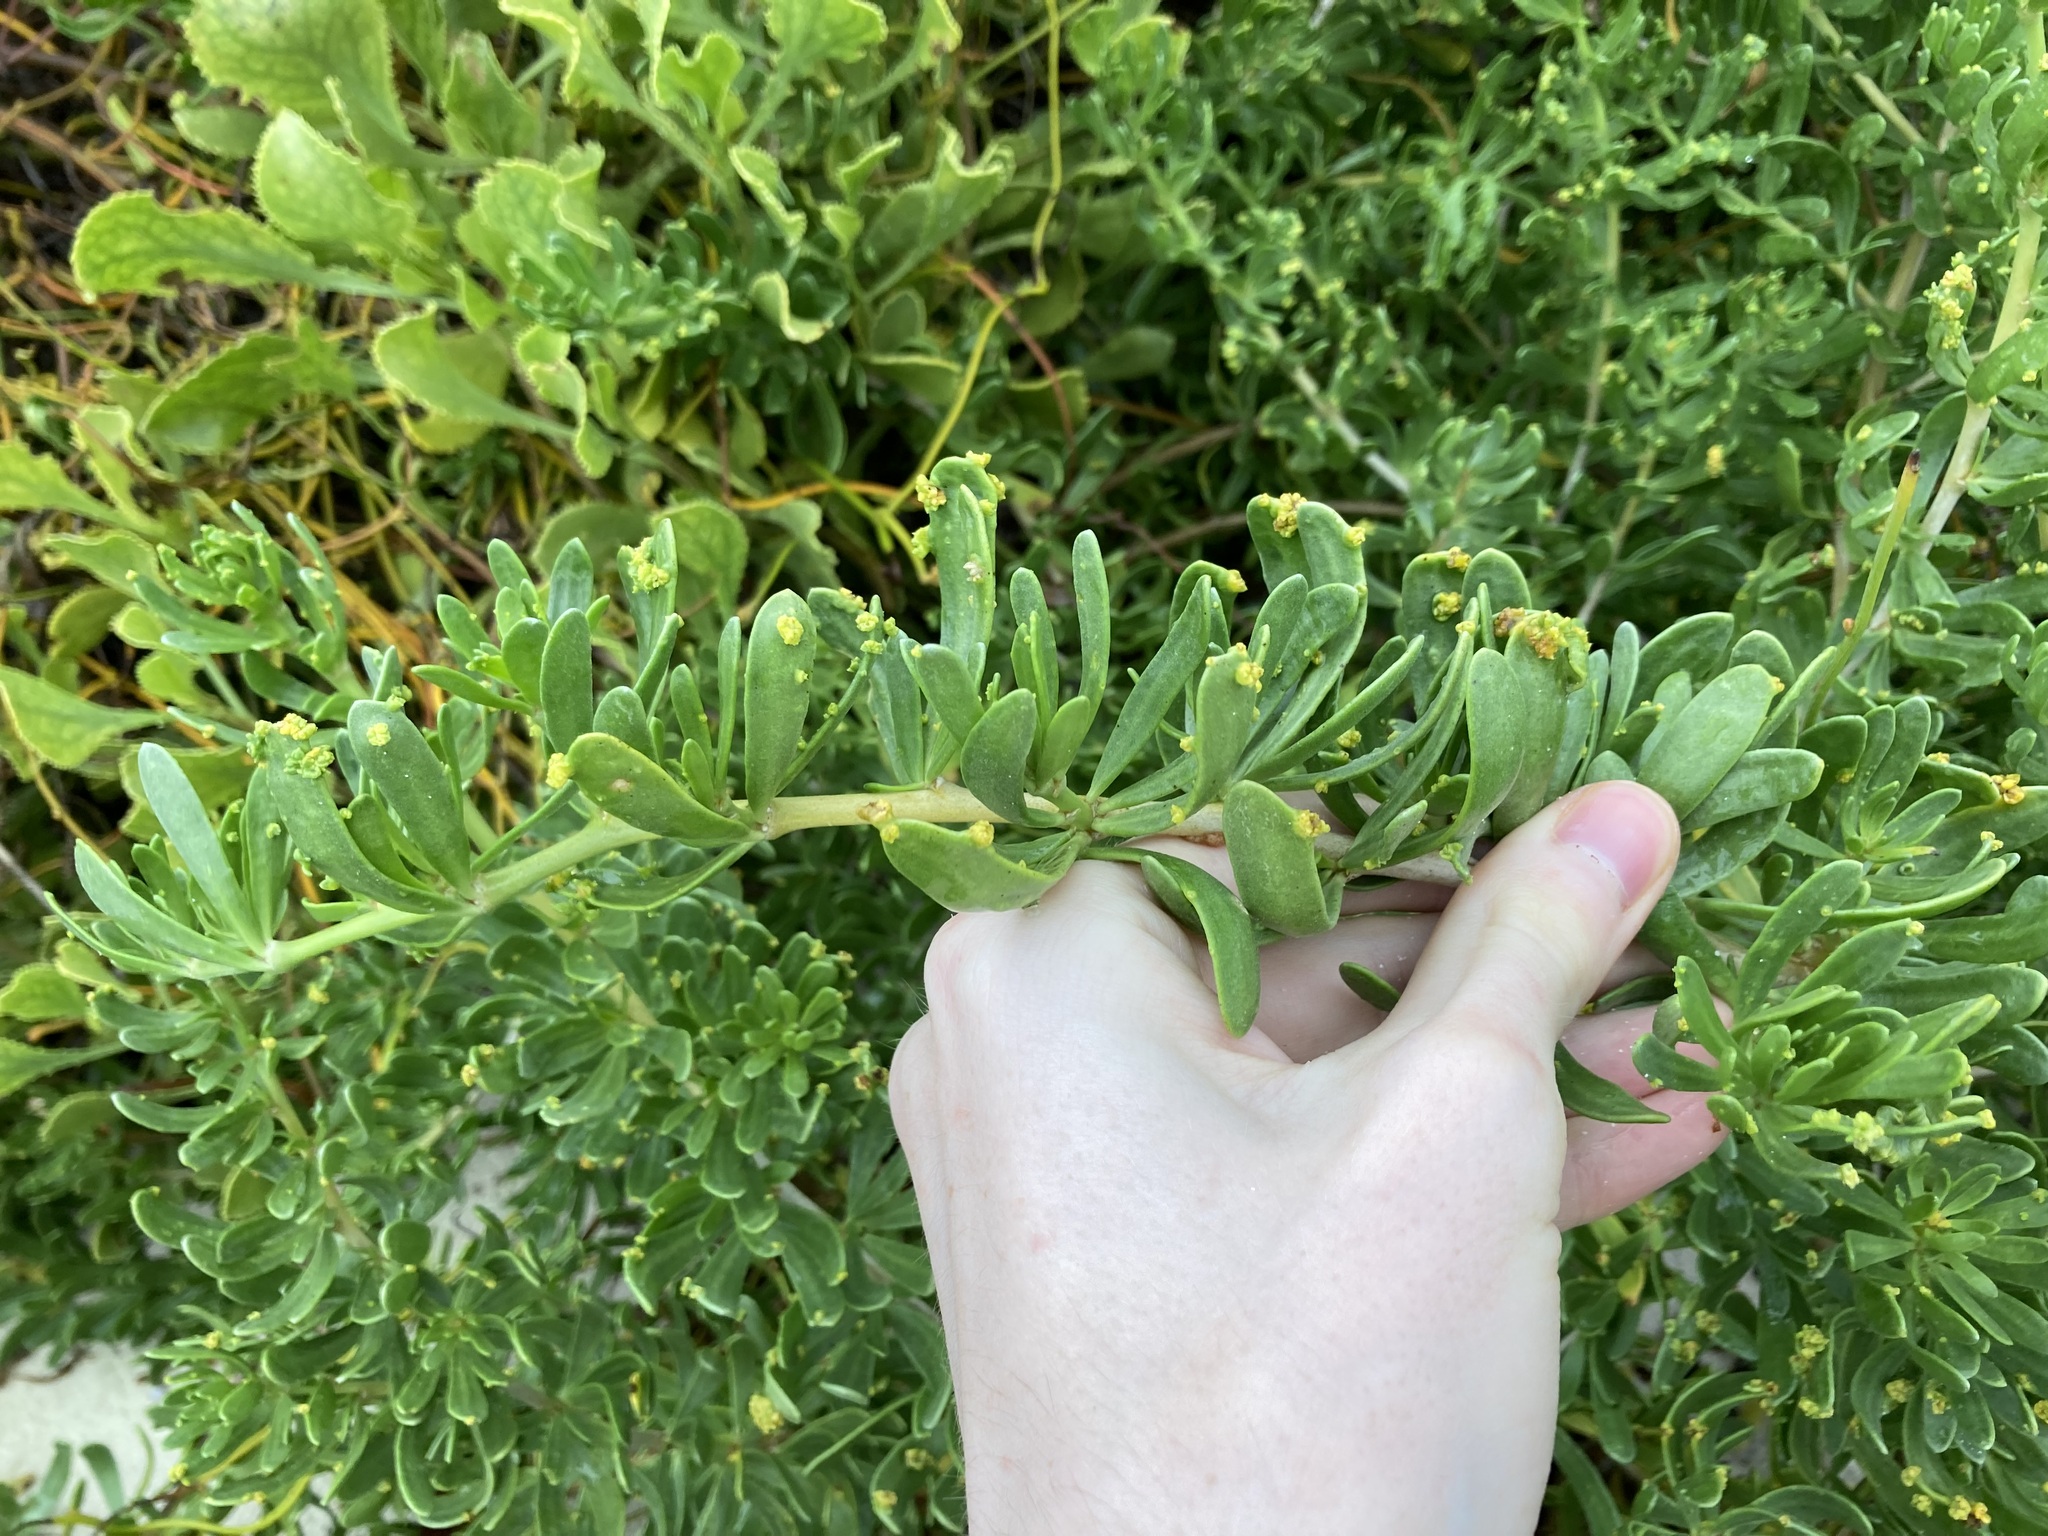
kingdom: Plantae
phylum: Tracheophyta
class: Magnoliopsida
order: Sapindales
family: Nitrariaceae
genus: Nitraria
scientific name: Nitraria billardierei
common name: Dillonbush
